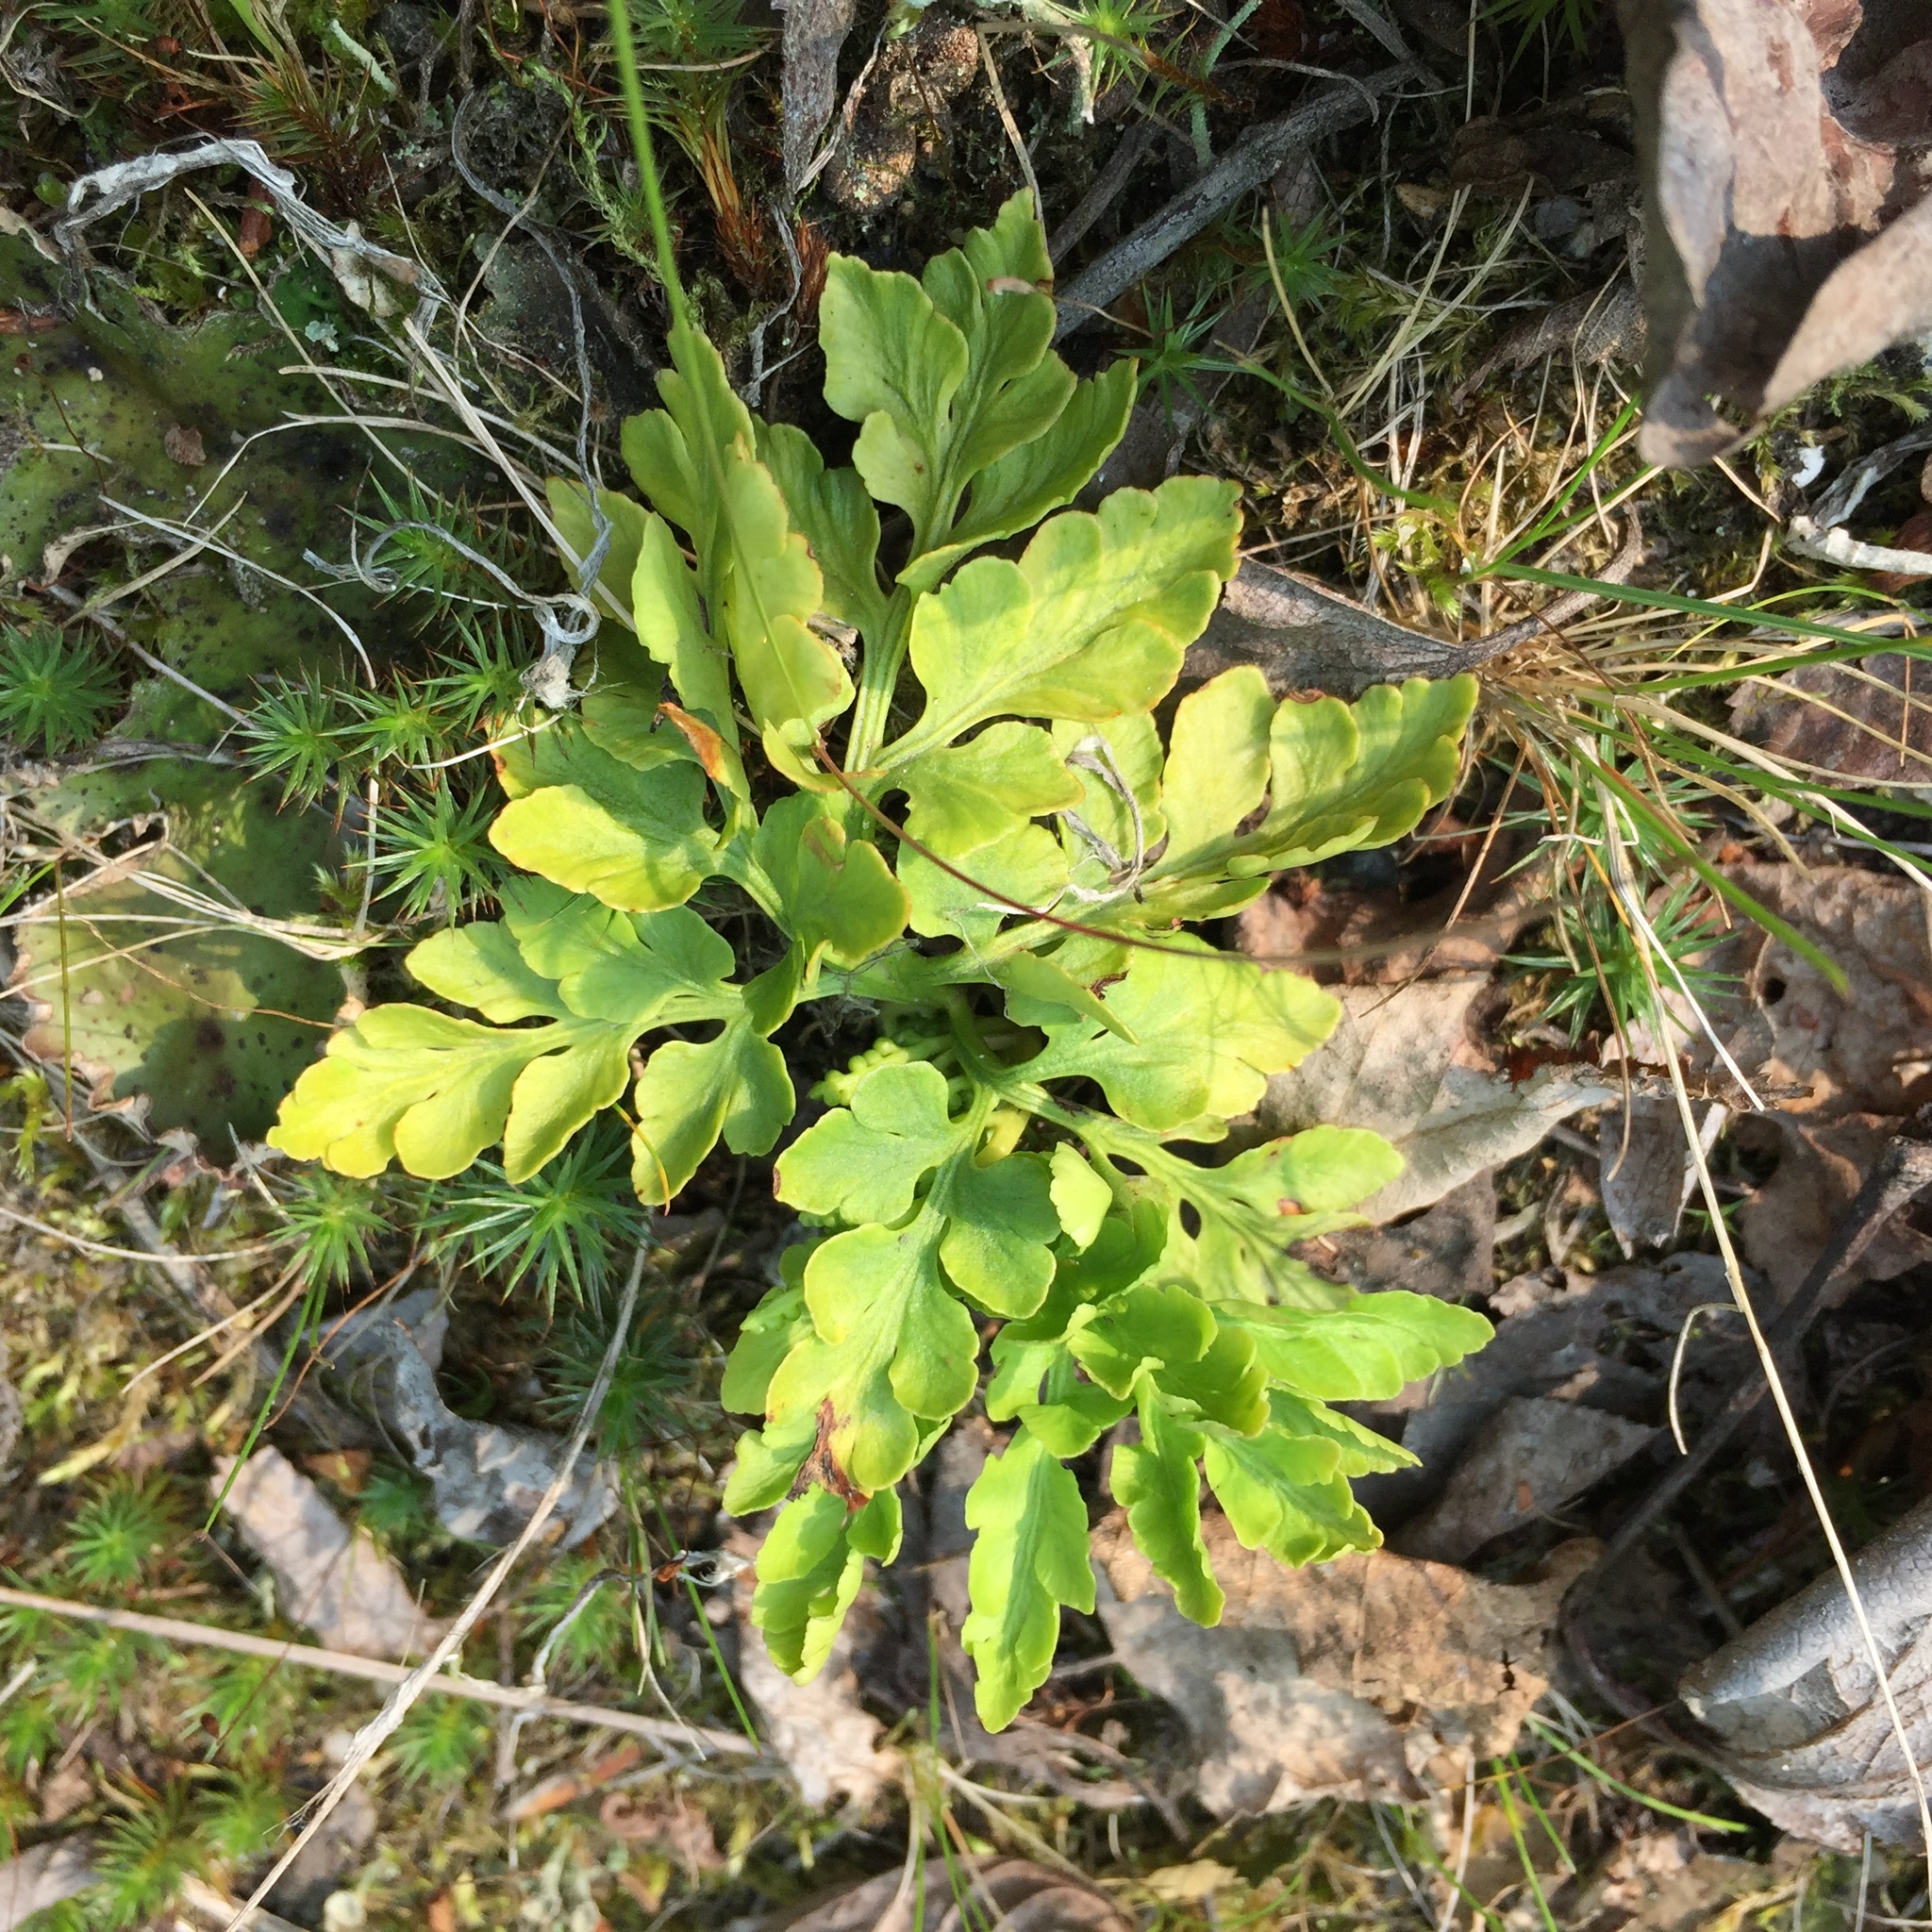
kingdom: Plantae
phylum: Tracheophyta
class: Polypodiopsida
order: Ophioglossales
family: Ophioglossaceae
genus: Sceptridium
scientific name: Sceptridium multifidum
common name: Leathery grape fern
